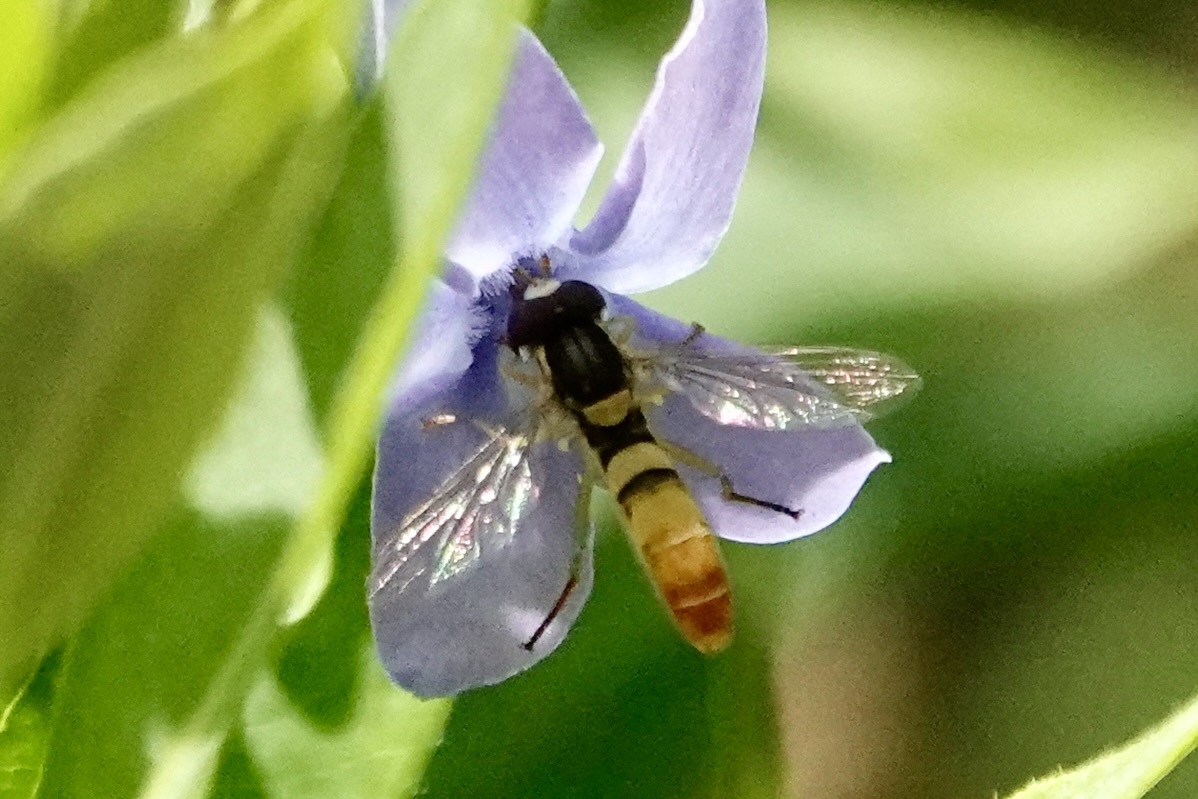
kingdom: Animalia
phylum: Arthropoda
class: Insecta
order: Diptera
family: Syrphidae
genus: Sphaerophoria
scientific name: Sphaerophoria contigua
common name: Tufted globetail
